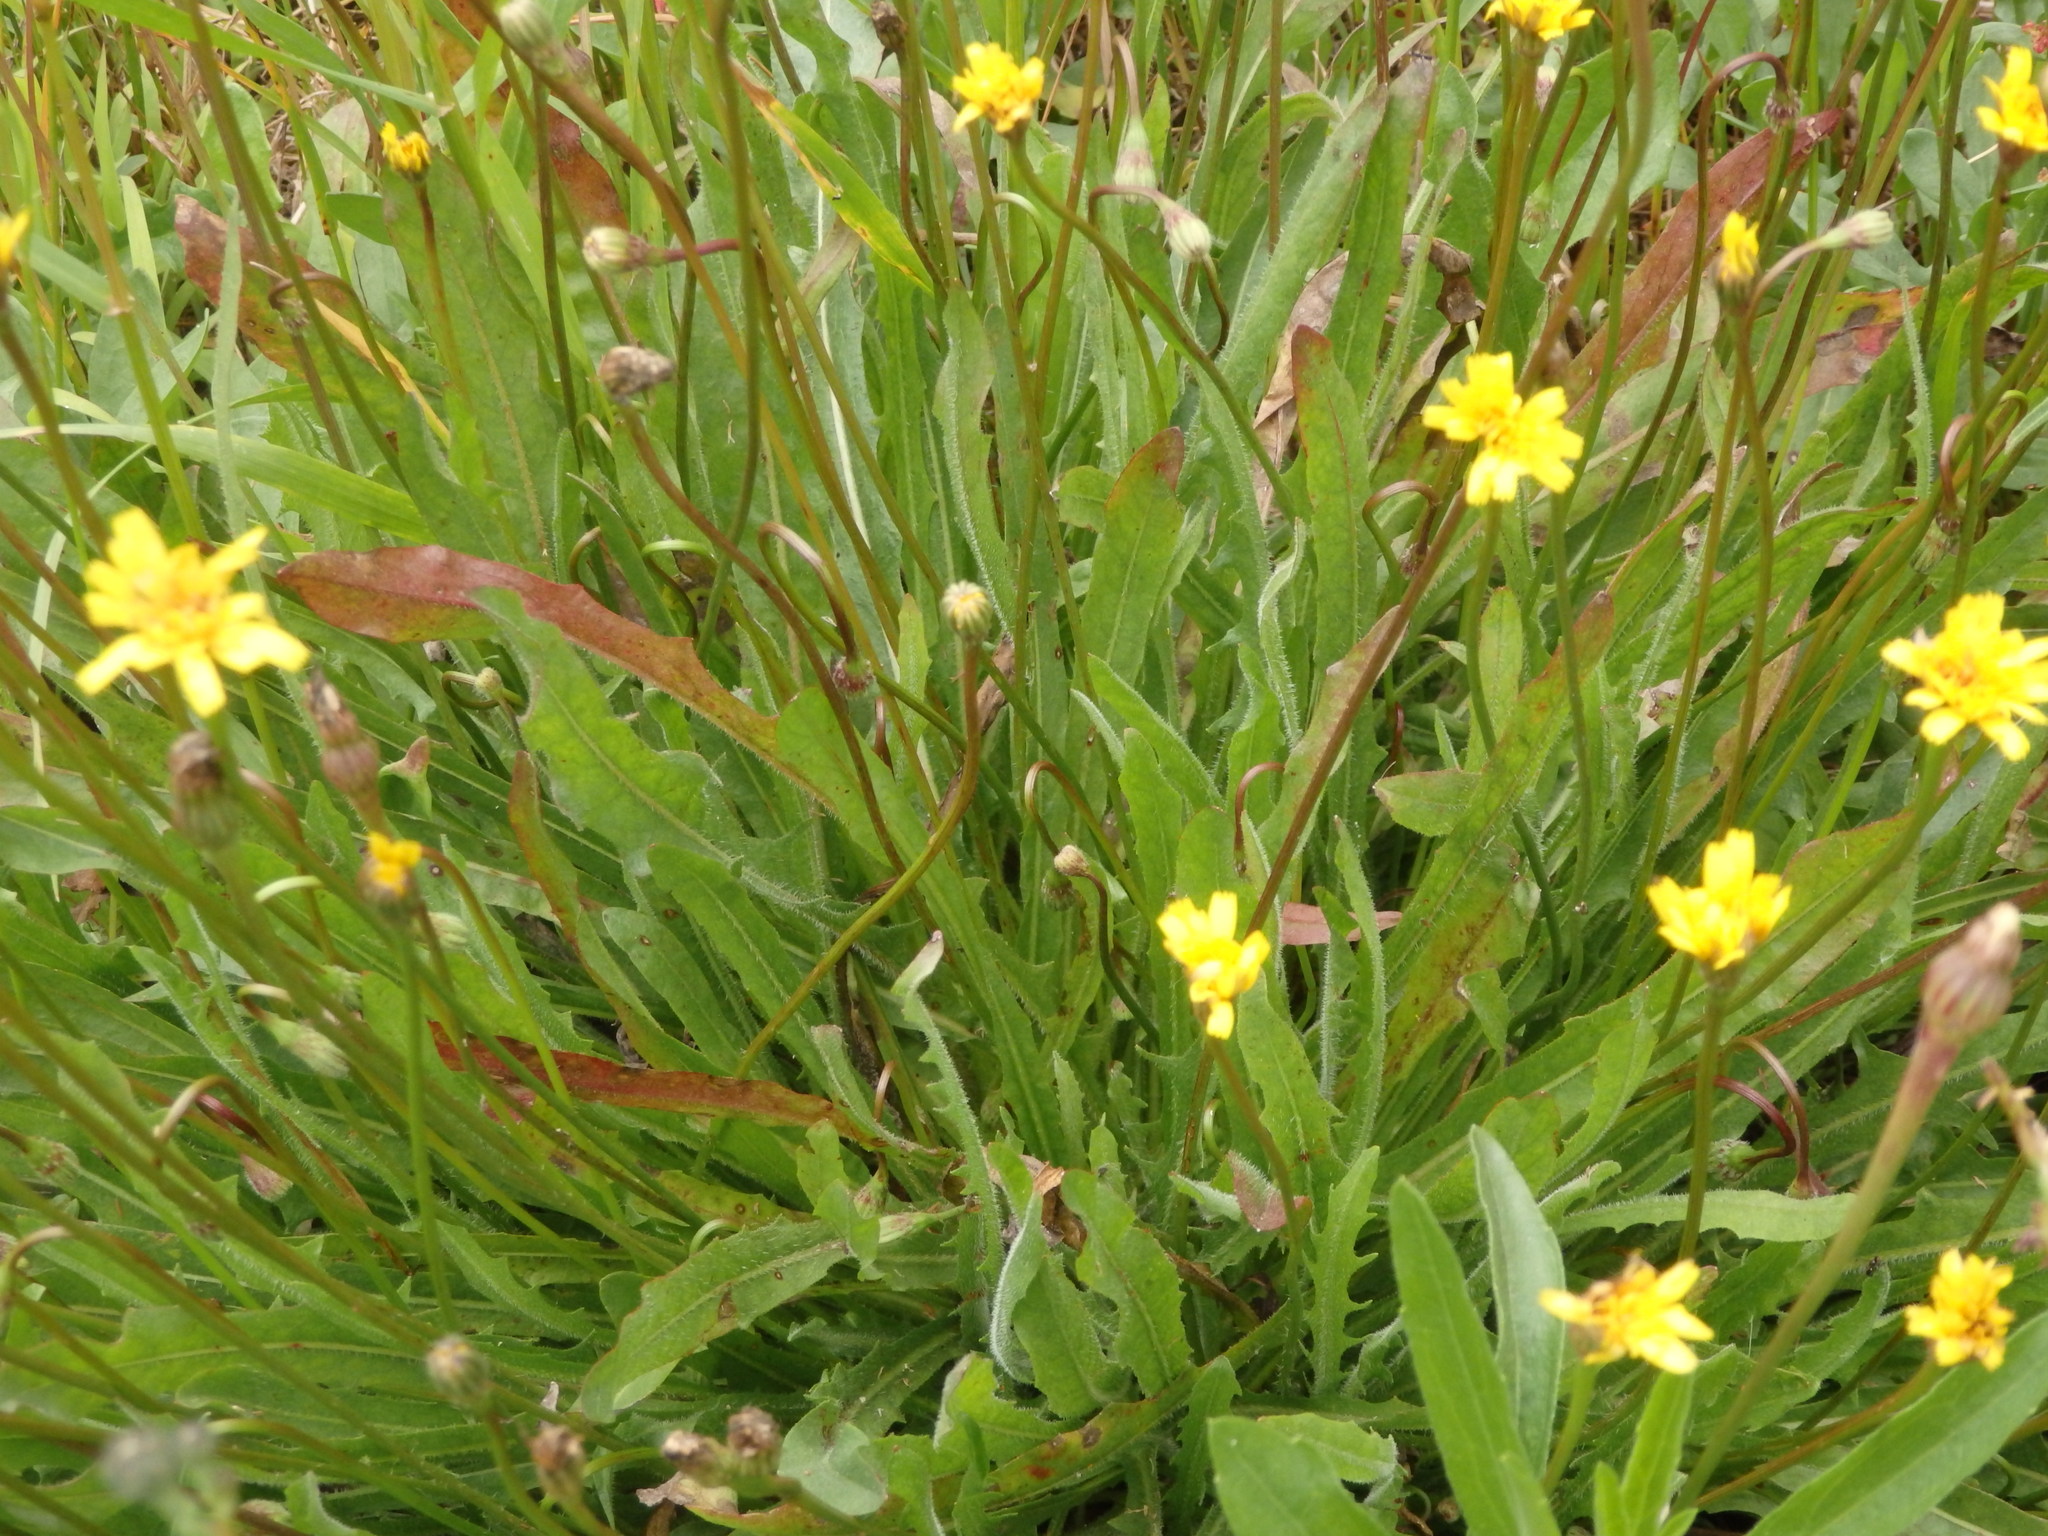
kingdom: Plantae
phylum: Tracheophyta
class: Magnoliopsida
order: Asterales
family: Asteraceae
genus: Leontodon
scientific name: Leontodon hispidus
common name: Rough hawkbit
